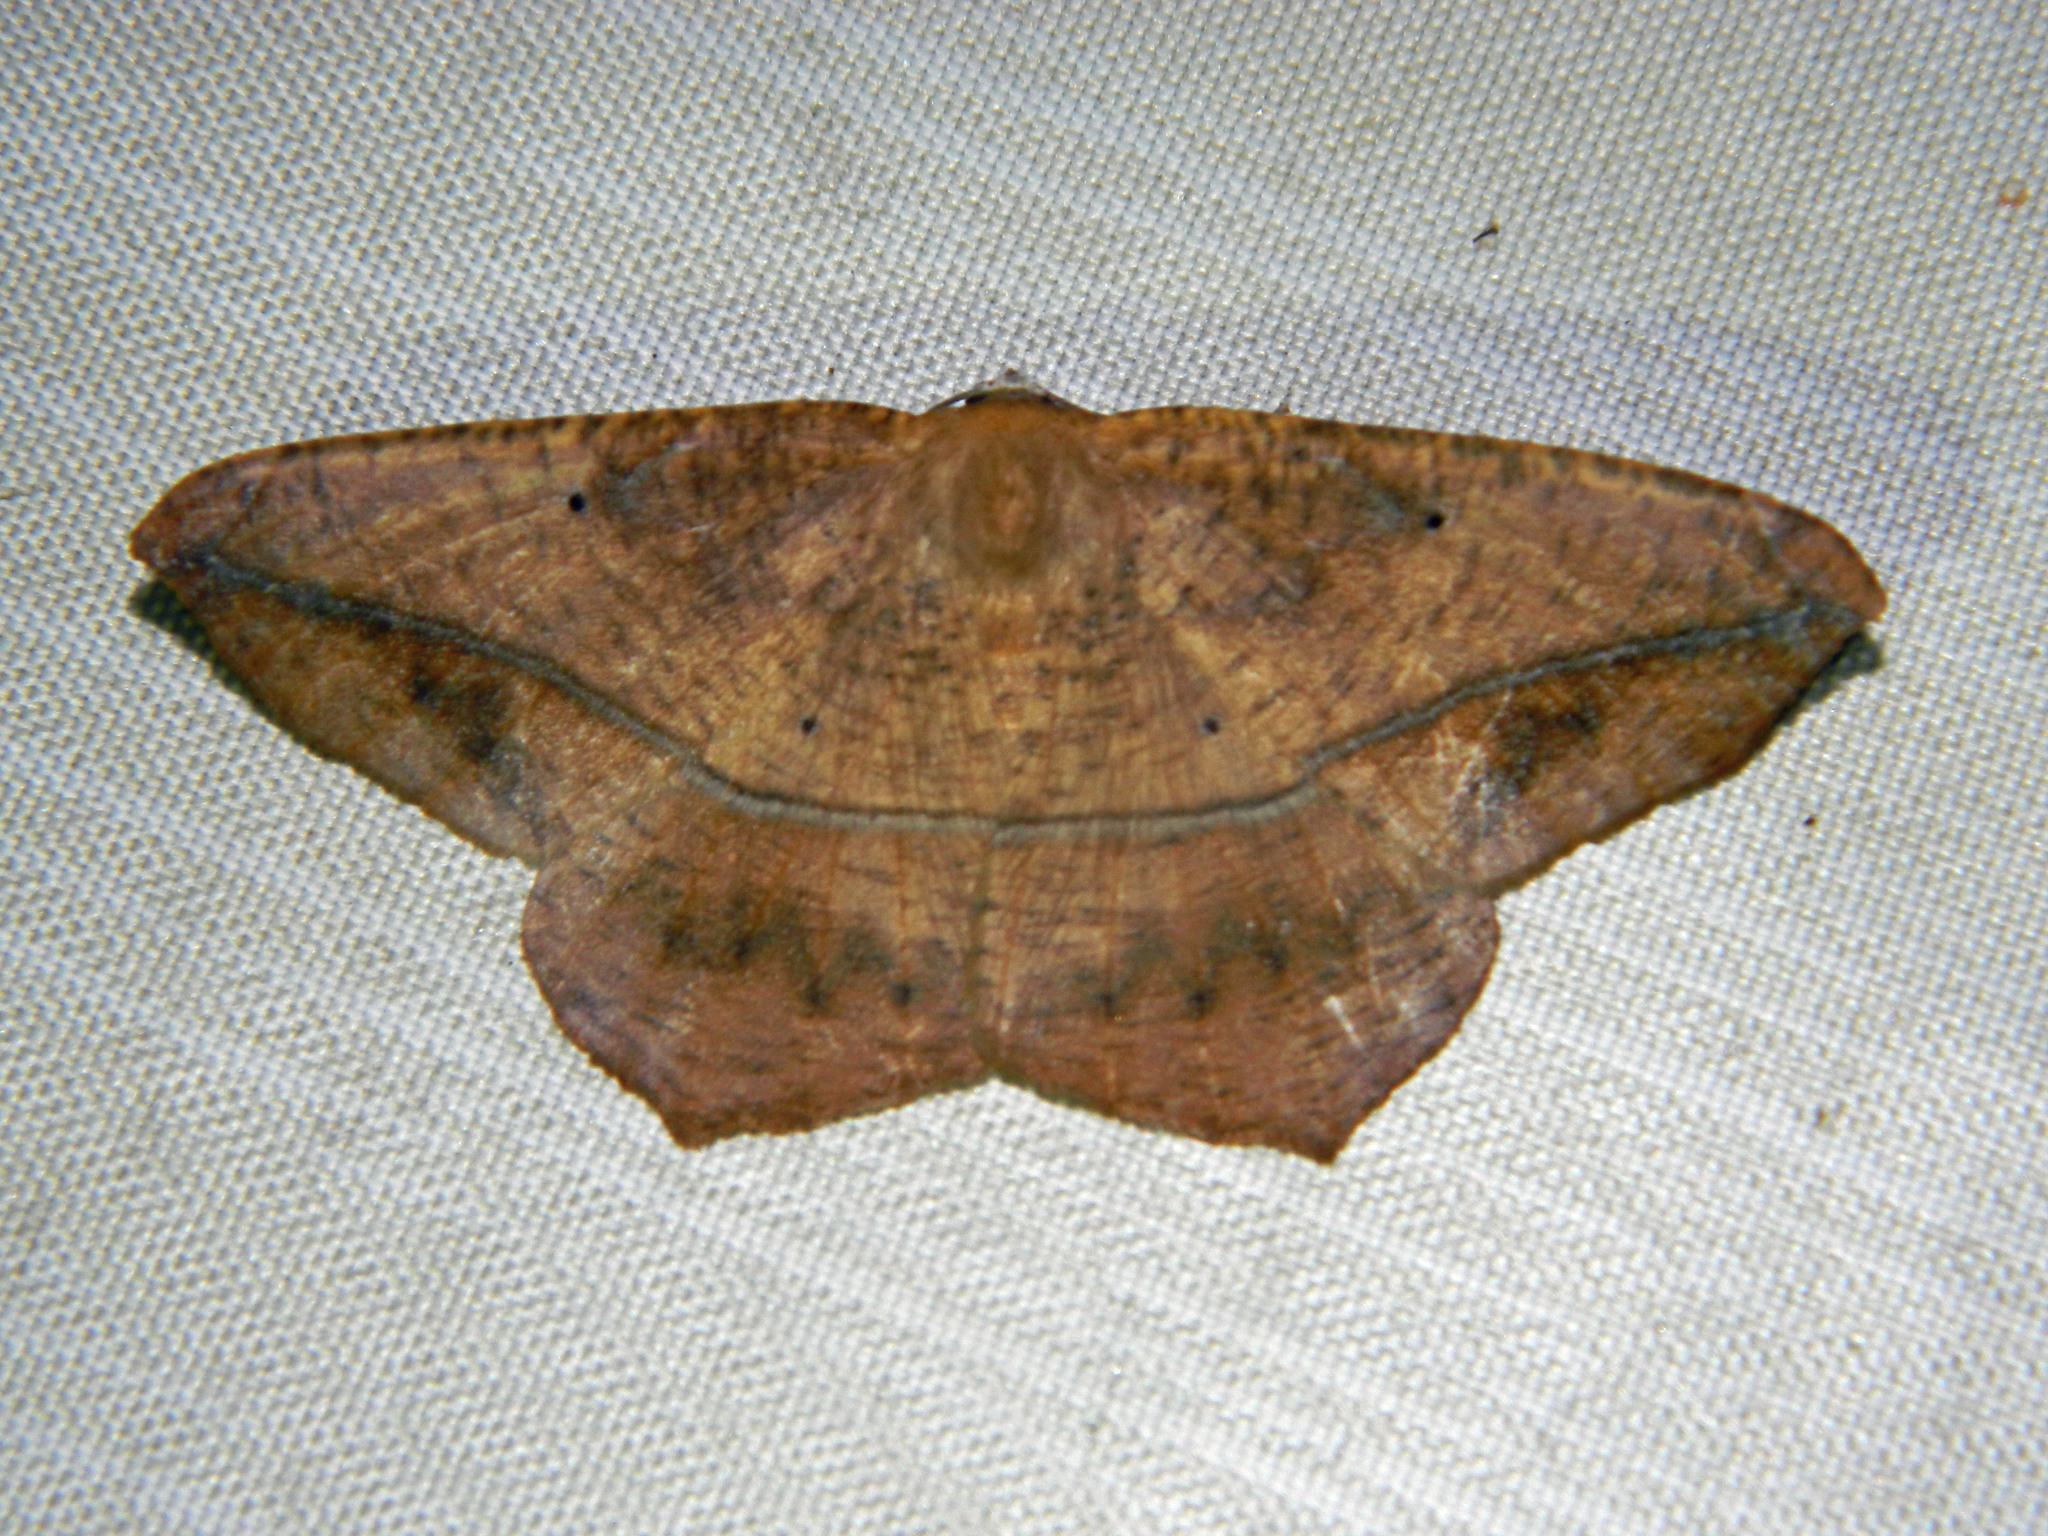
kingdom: Animalia
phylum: Arthropoda
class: Insecta
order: Lepidoptera
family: Geometridae
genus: Prochoerodes
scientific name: Prochoerodes lineola
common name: Large maple spanworm
